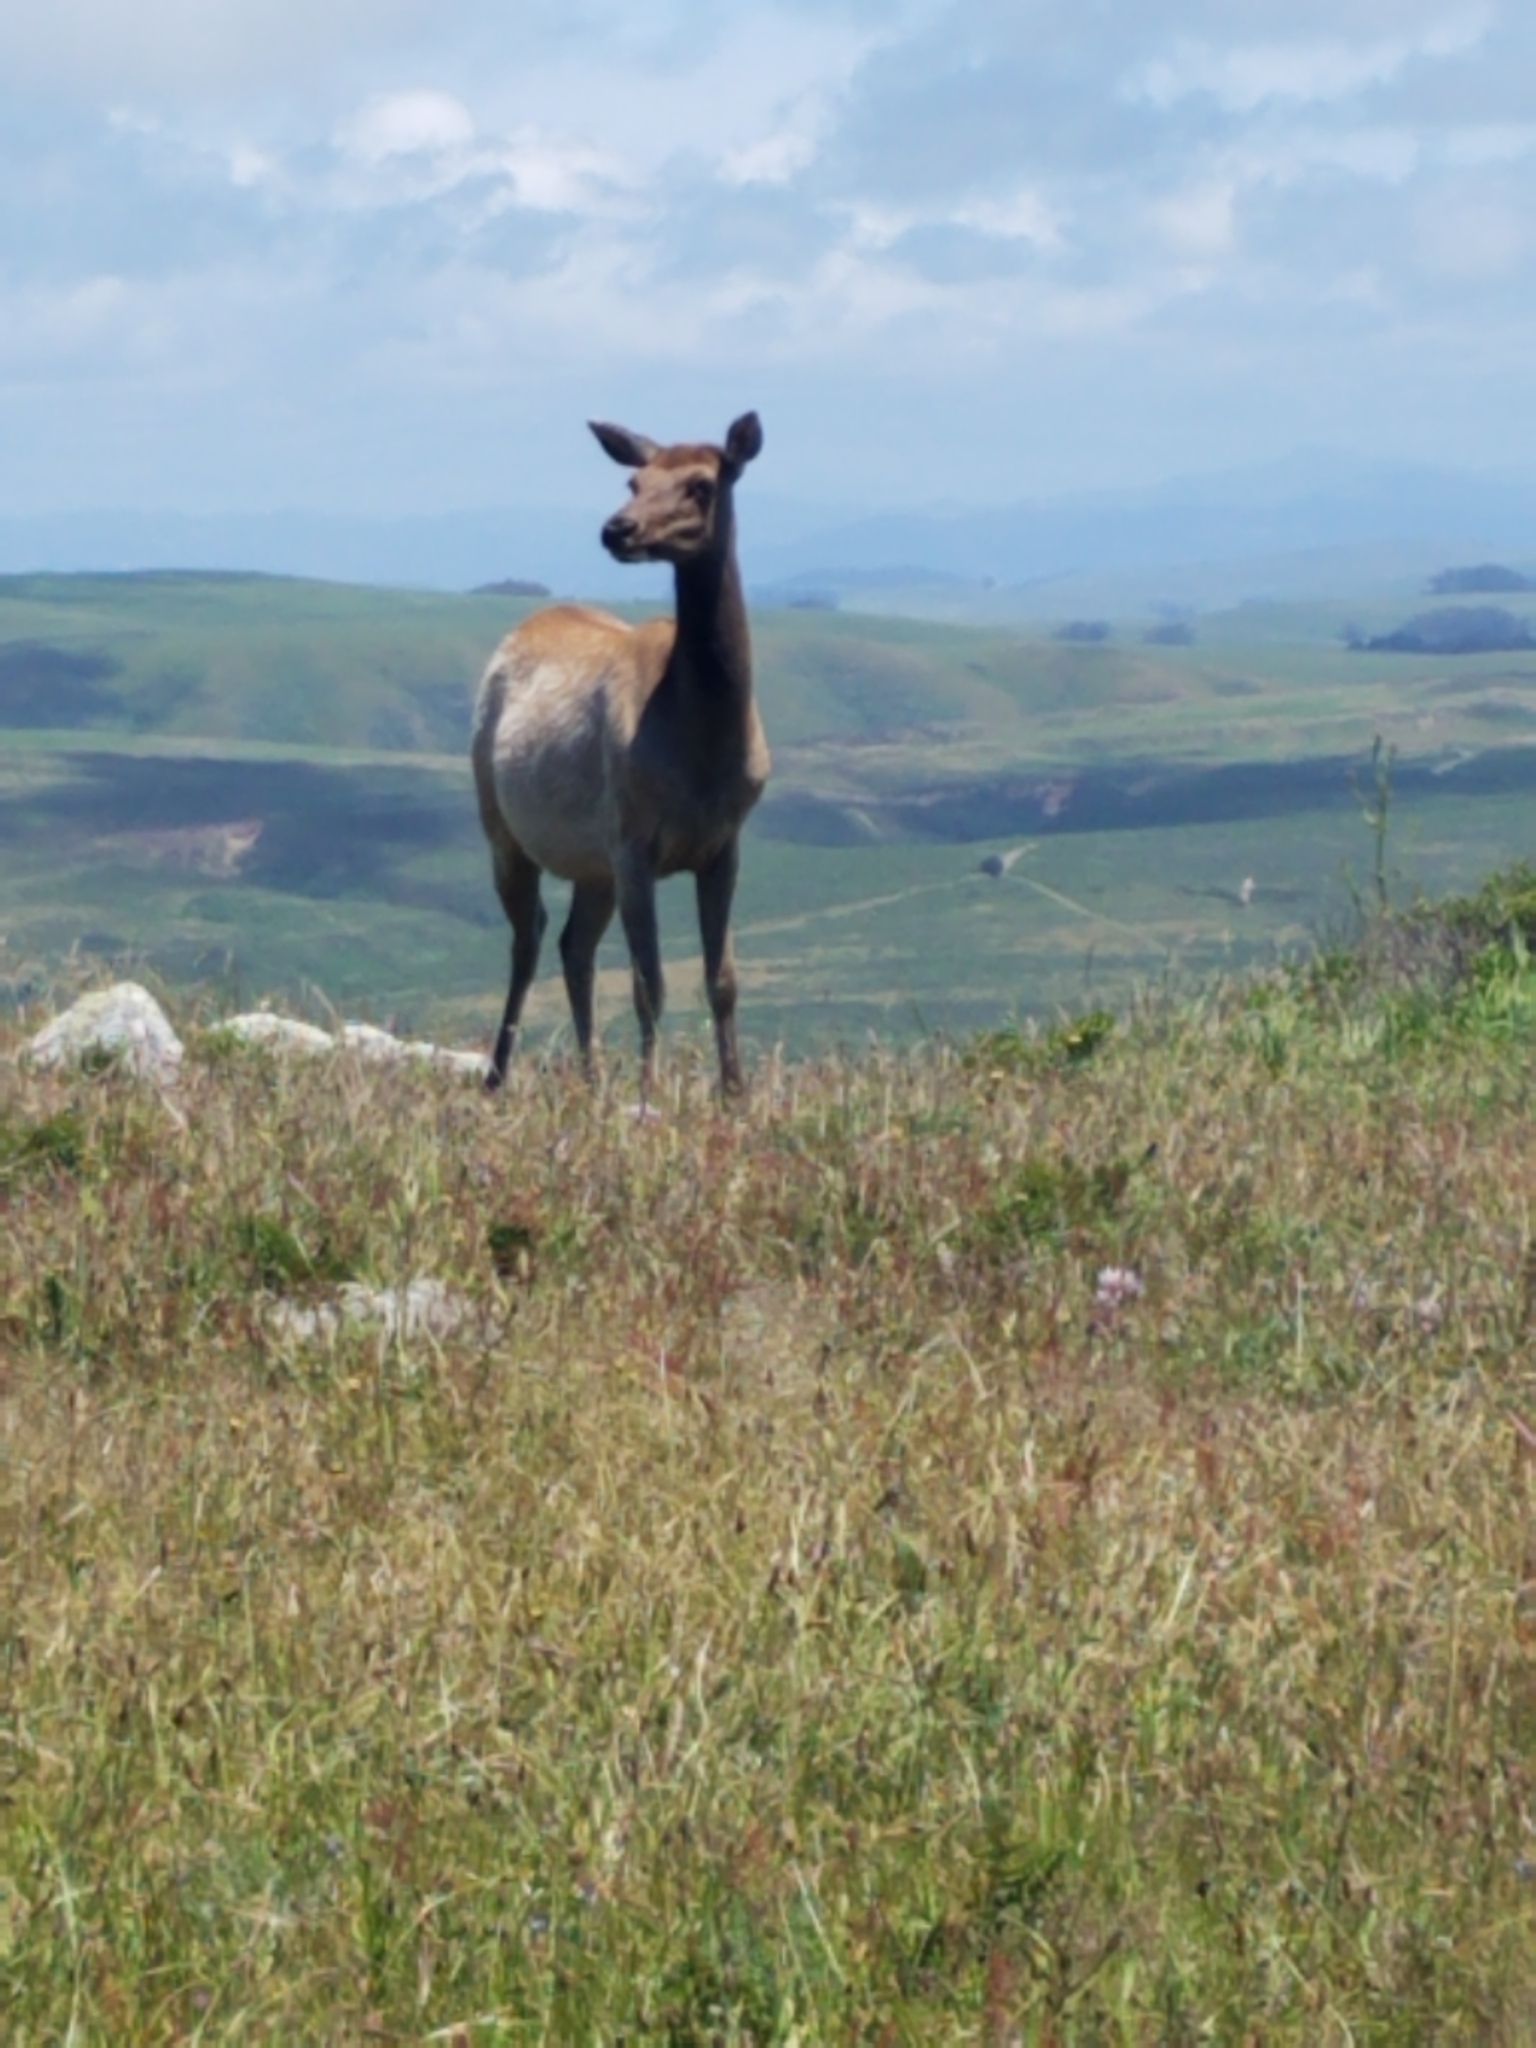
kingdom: Animalia
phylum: Chordata
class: Mammalia
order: Artiodactyla
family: Cervidae
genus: Cervus
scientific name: Cervus elaphus
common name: Red deer
